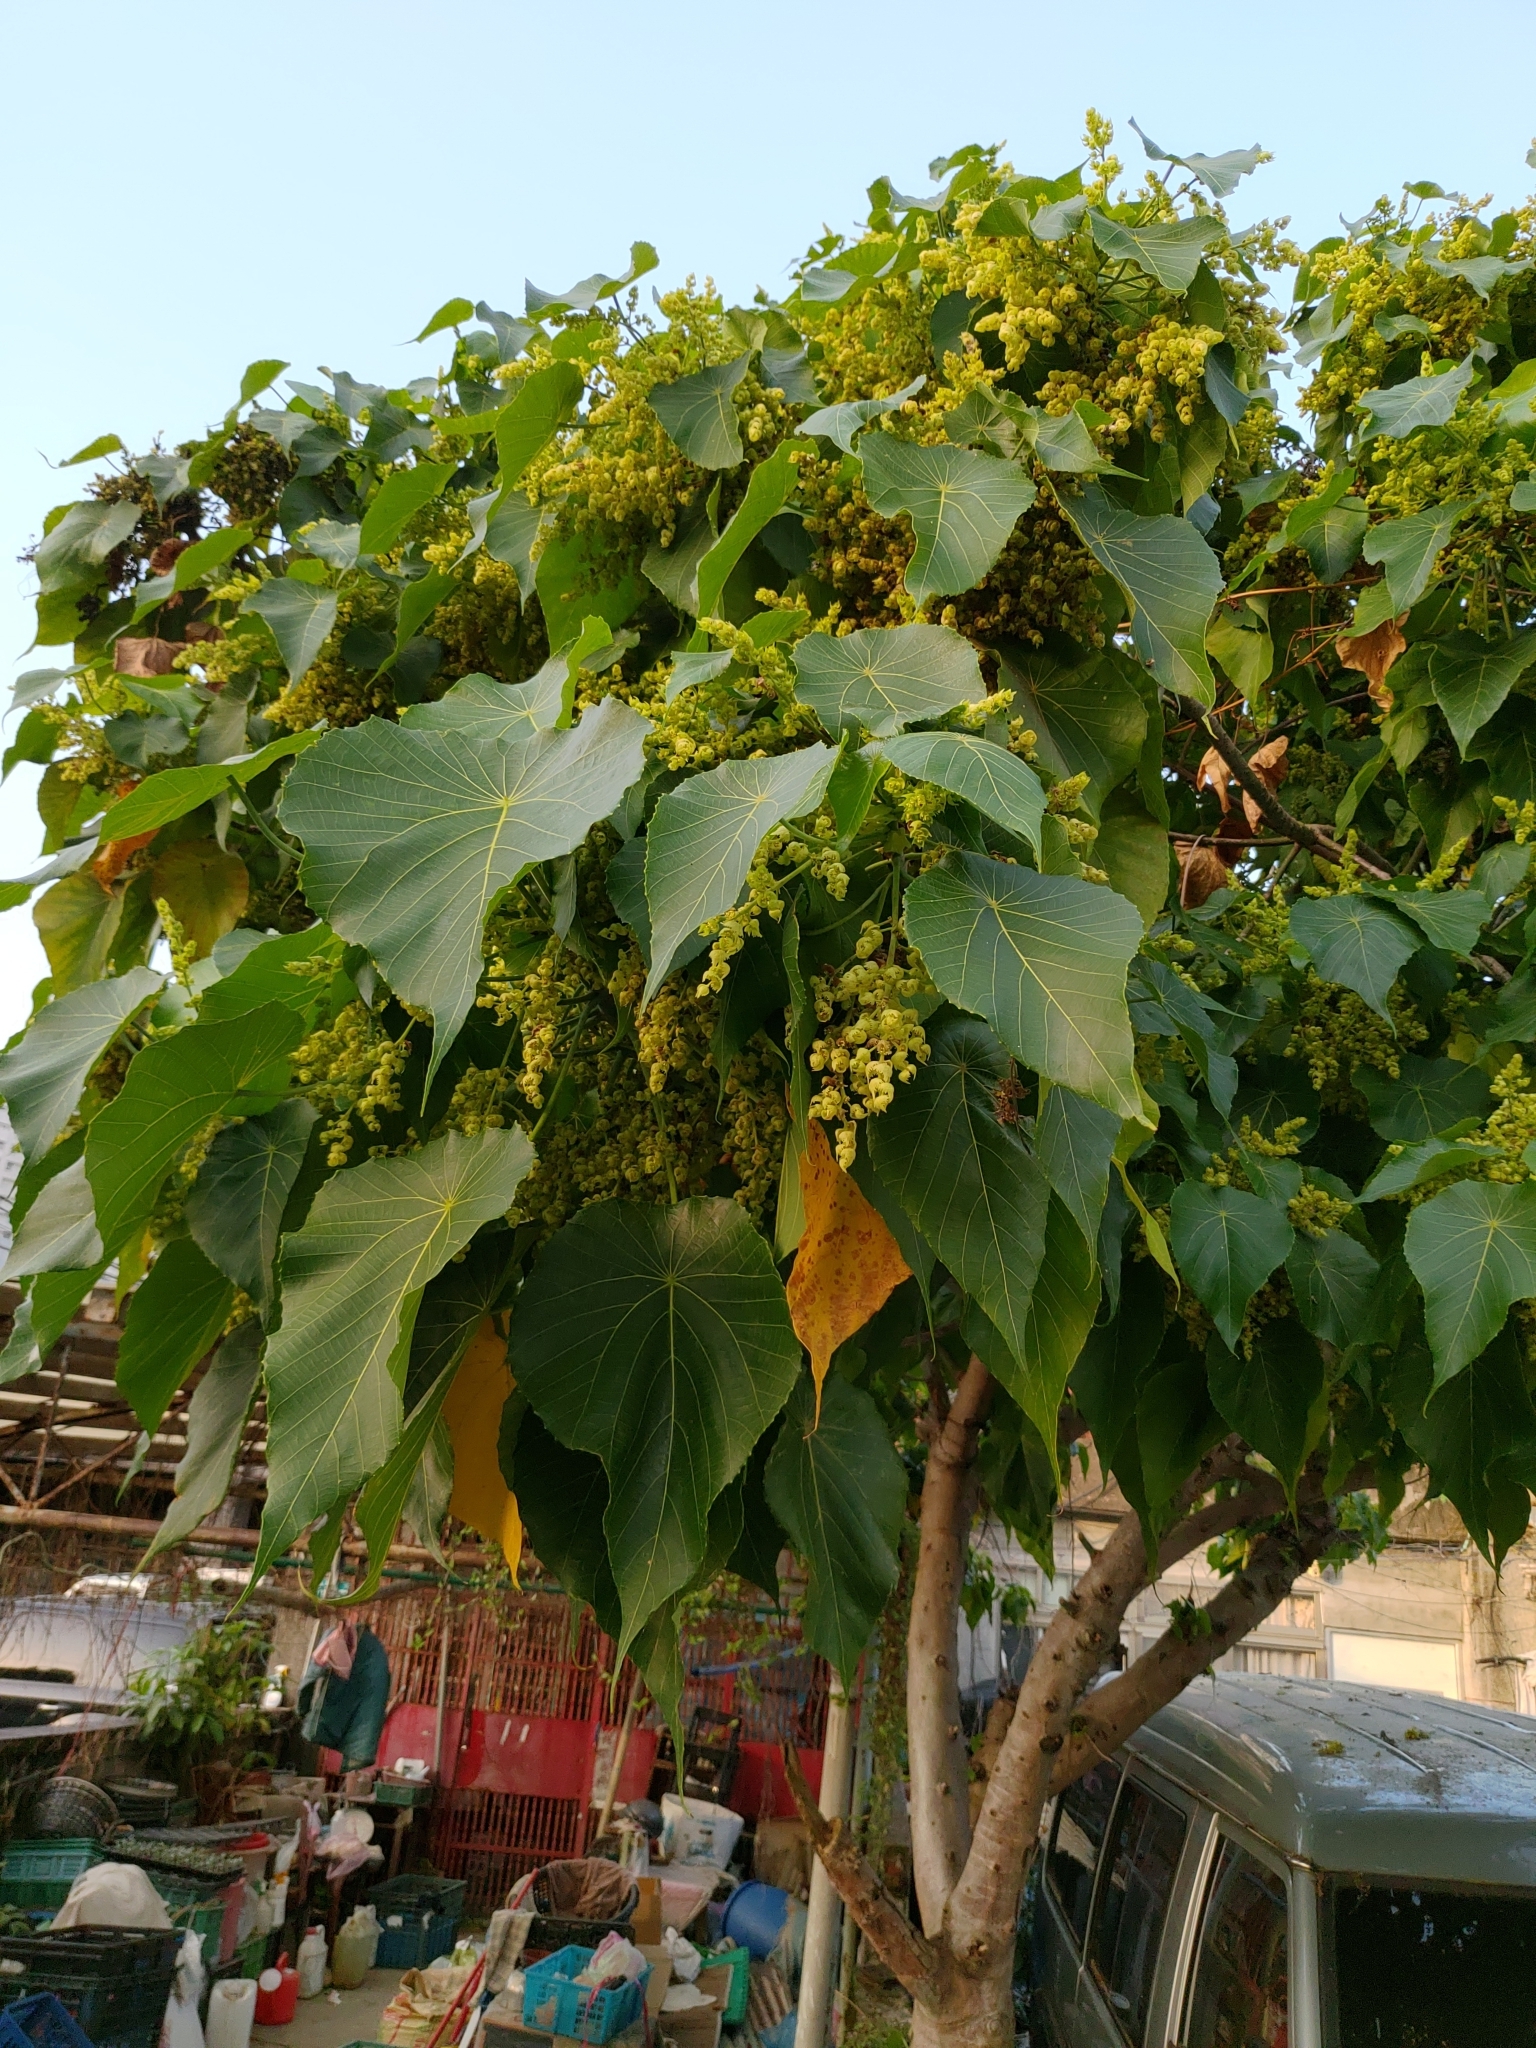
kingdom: Plantae
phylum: Tracheophyta
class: Magnoliopsida
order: Malpighiales
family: Euphorbiaceae
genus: Macaranga
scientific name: Macaranga tanarius
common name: Parasol leaf tree
